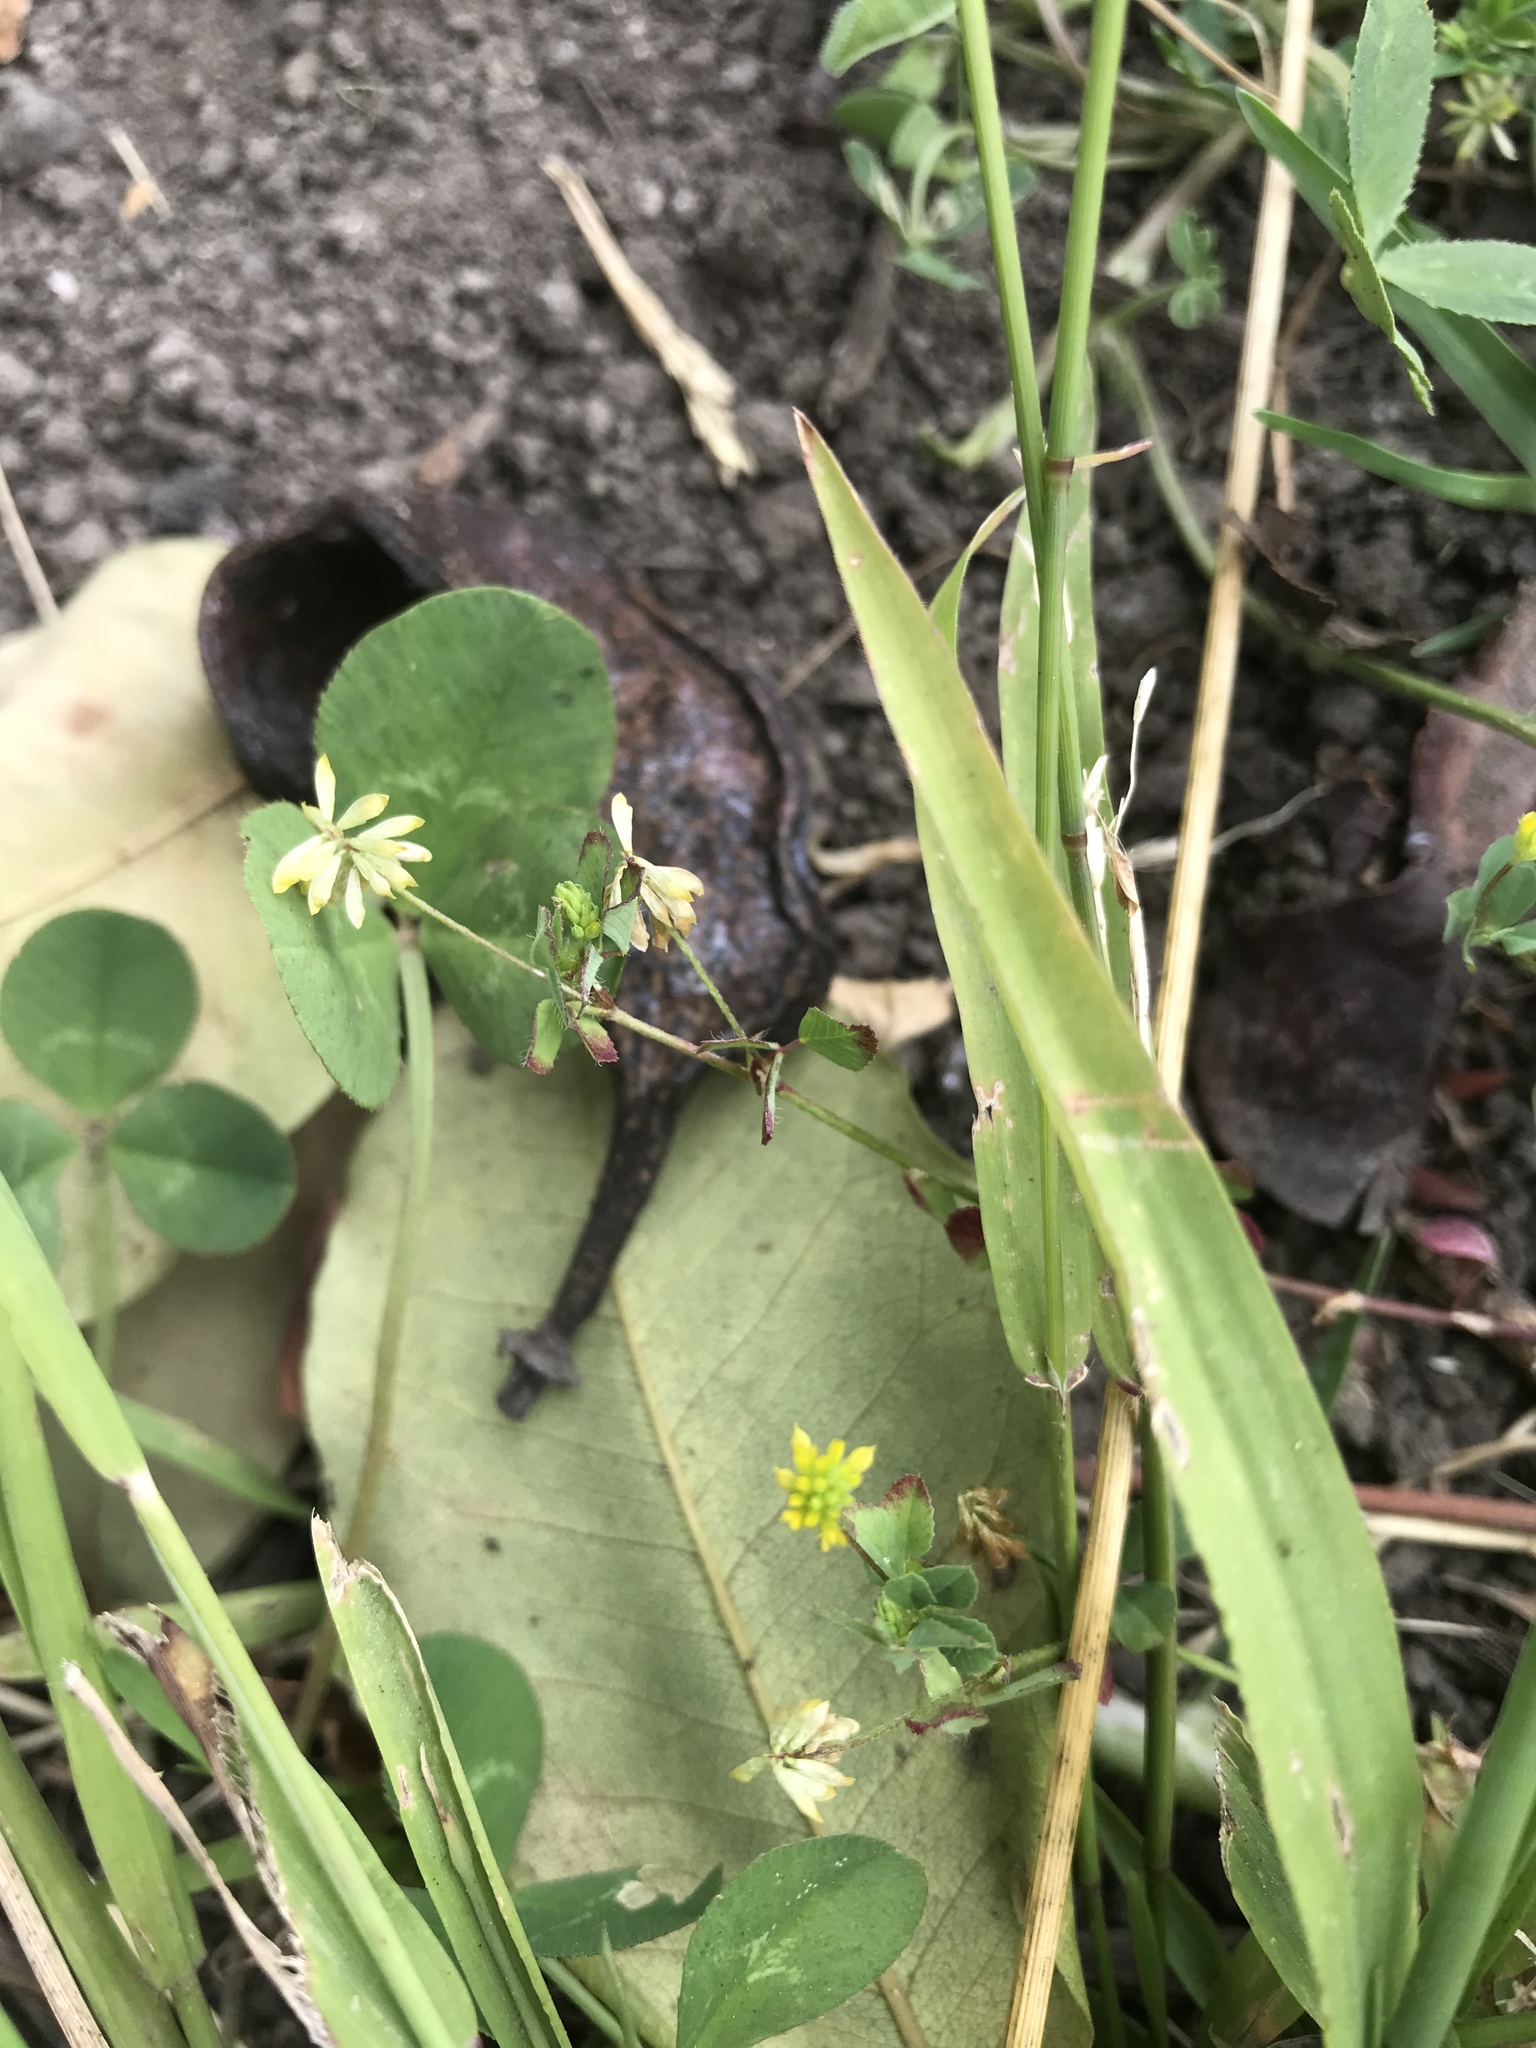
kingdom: Plantae
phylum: Tracheophyta
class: Magnoliopsida
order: Fabales
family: Fabaceae
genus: Trifolium
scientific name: Trifolium dubium
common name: Suckling clover
